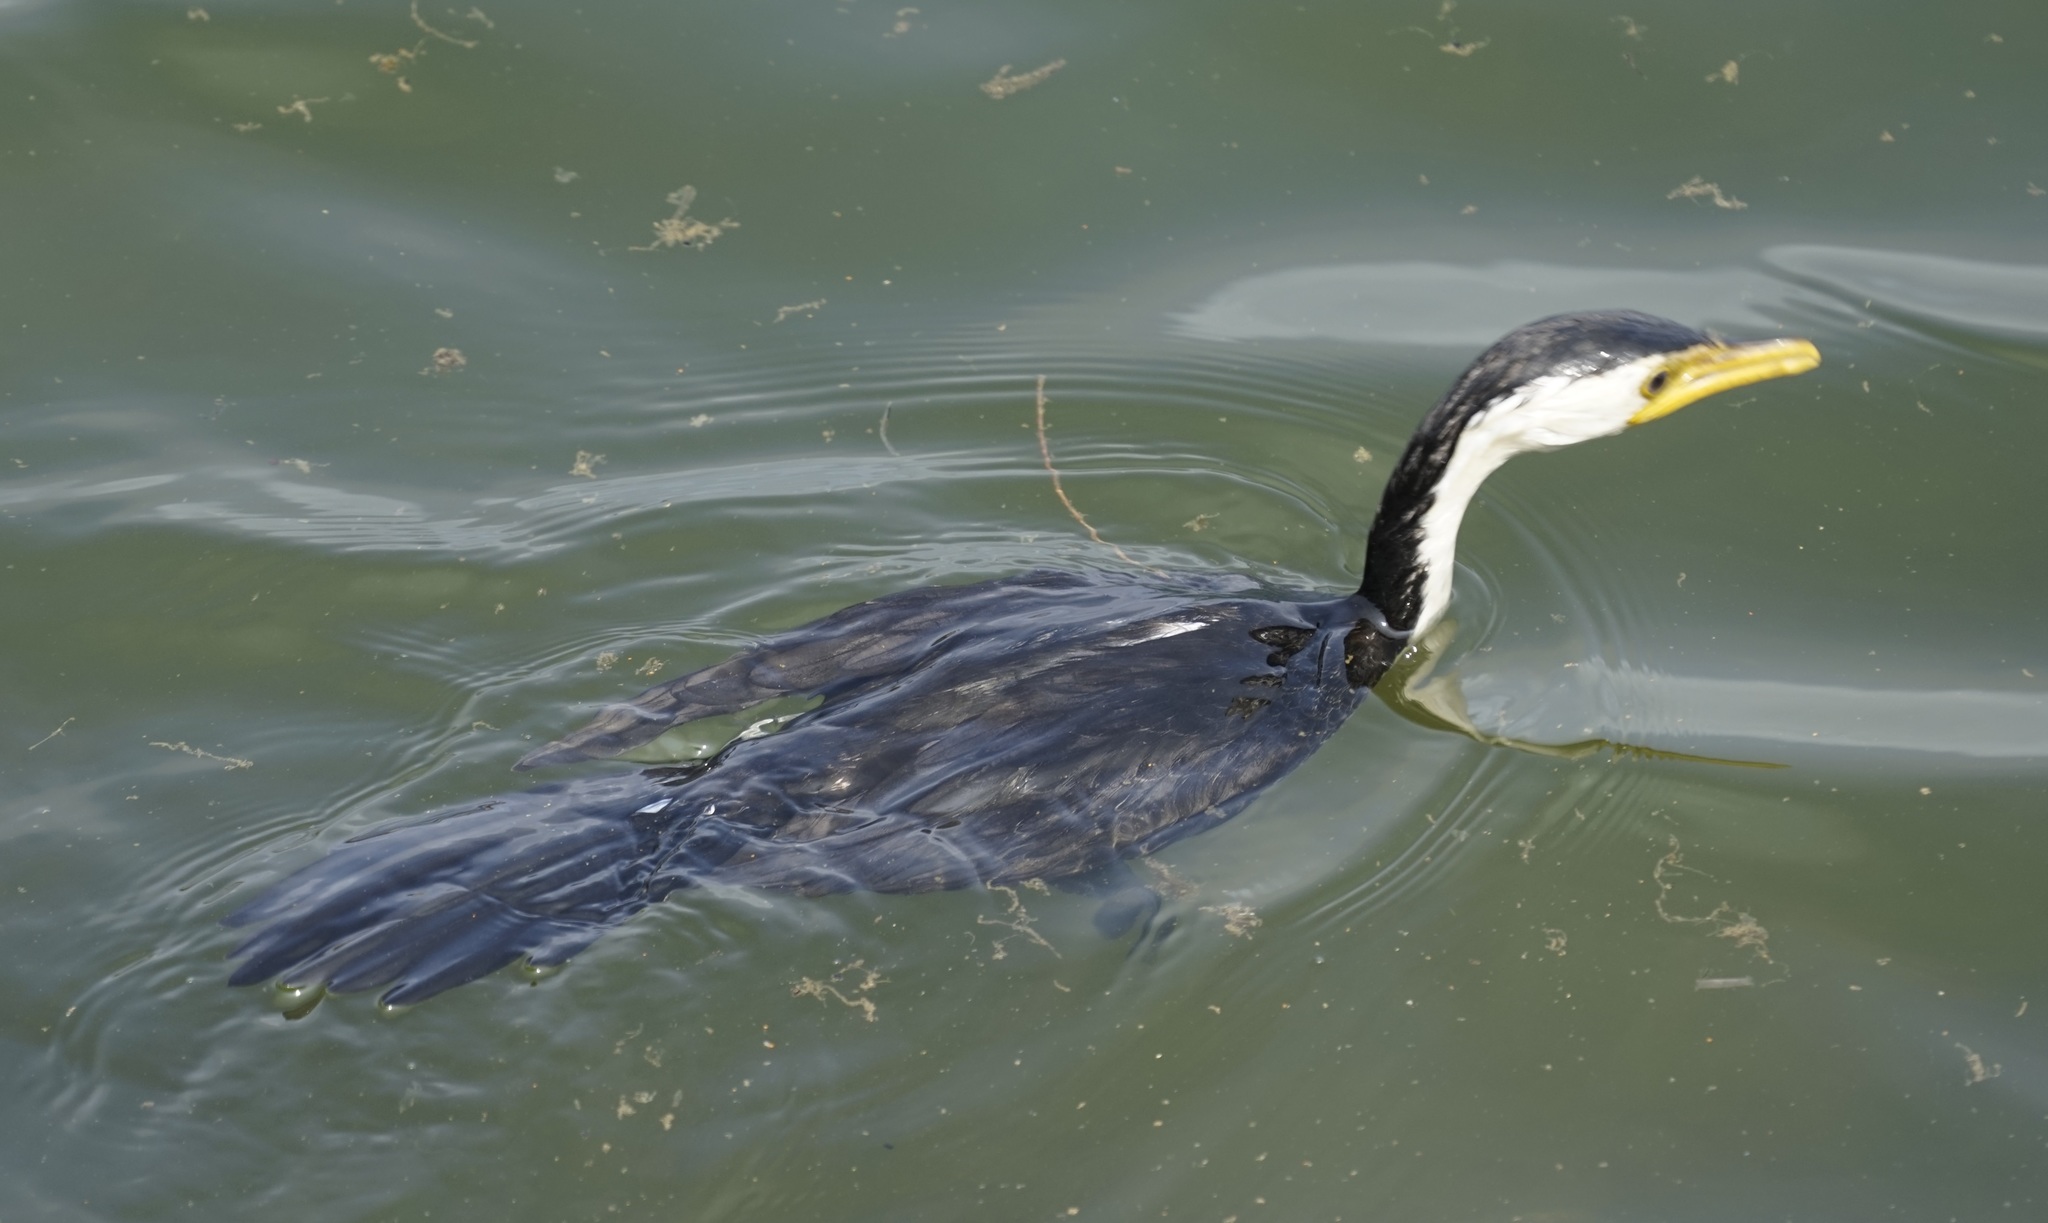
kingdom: Animalia
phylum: Chordata
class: Aves
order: Suliformes
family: Phalacrocoracidae
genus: Microcarbo
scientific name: Microcarbo melanoleucos
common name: Little pied cormorant
